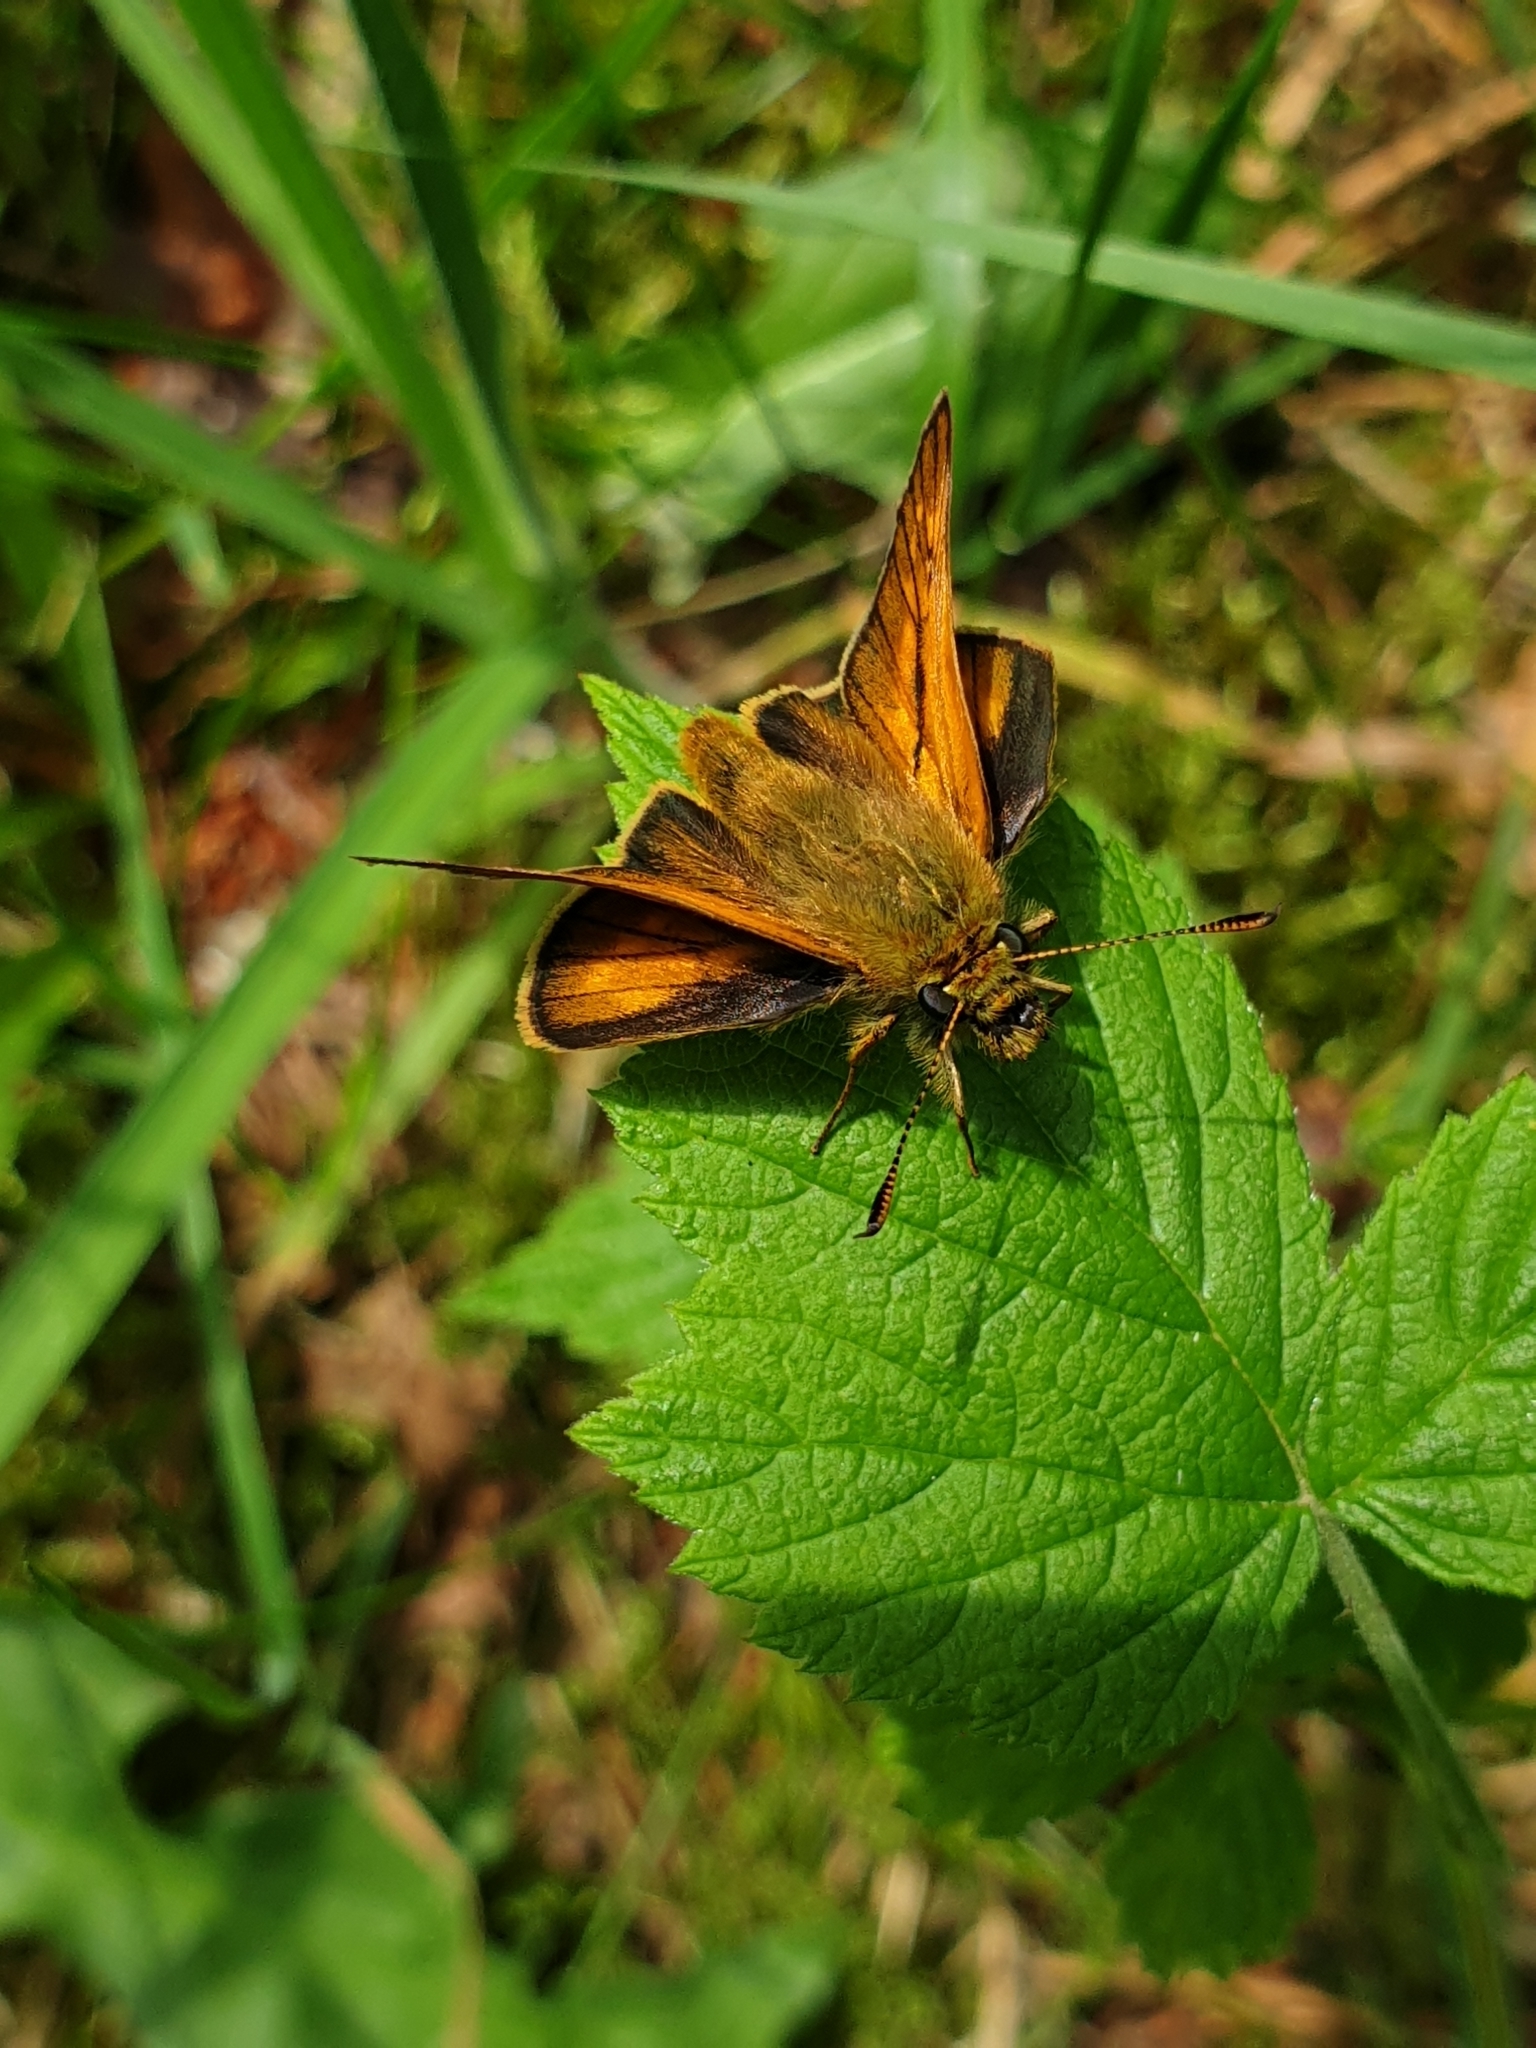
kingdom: Animalia
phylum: Arthropoda
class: Insecta
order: Lepidoptera
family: Hesperiidae
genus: Ochlodes
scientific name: Ochlodes venata
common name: Large skipper
